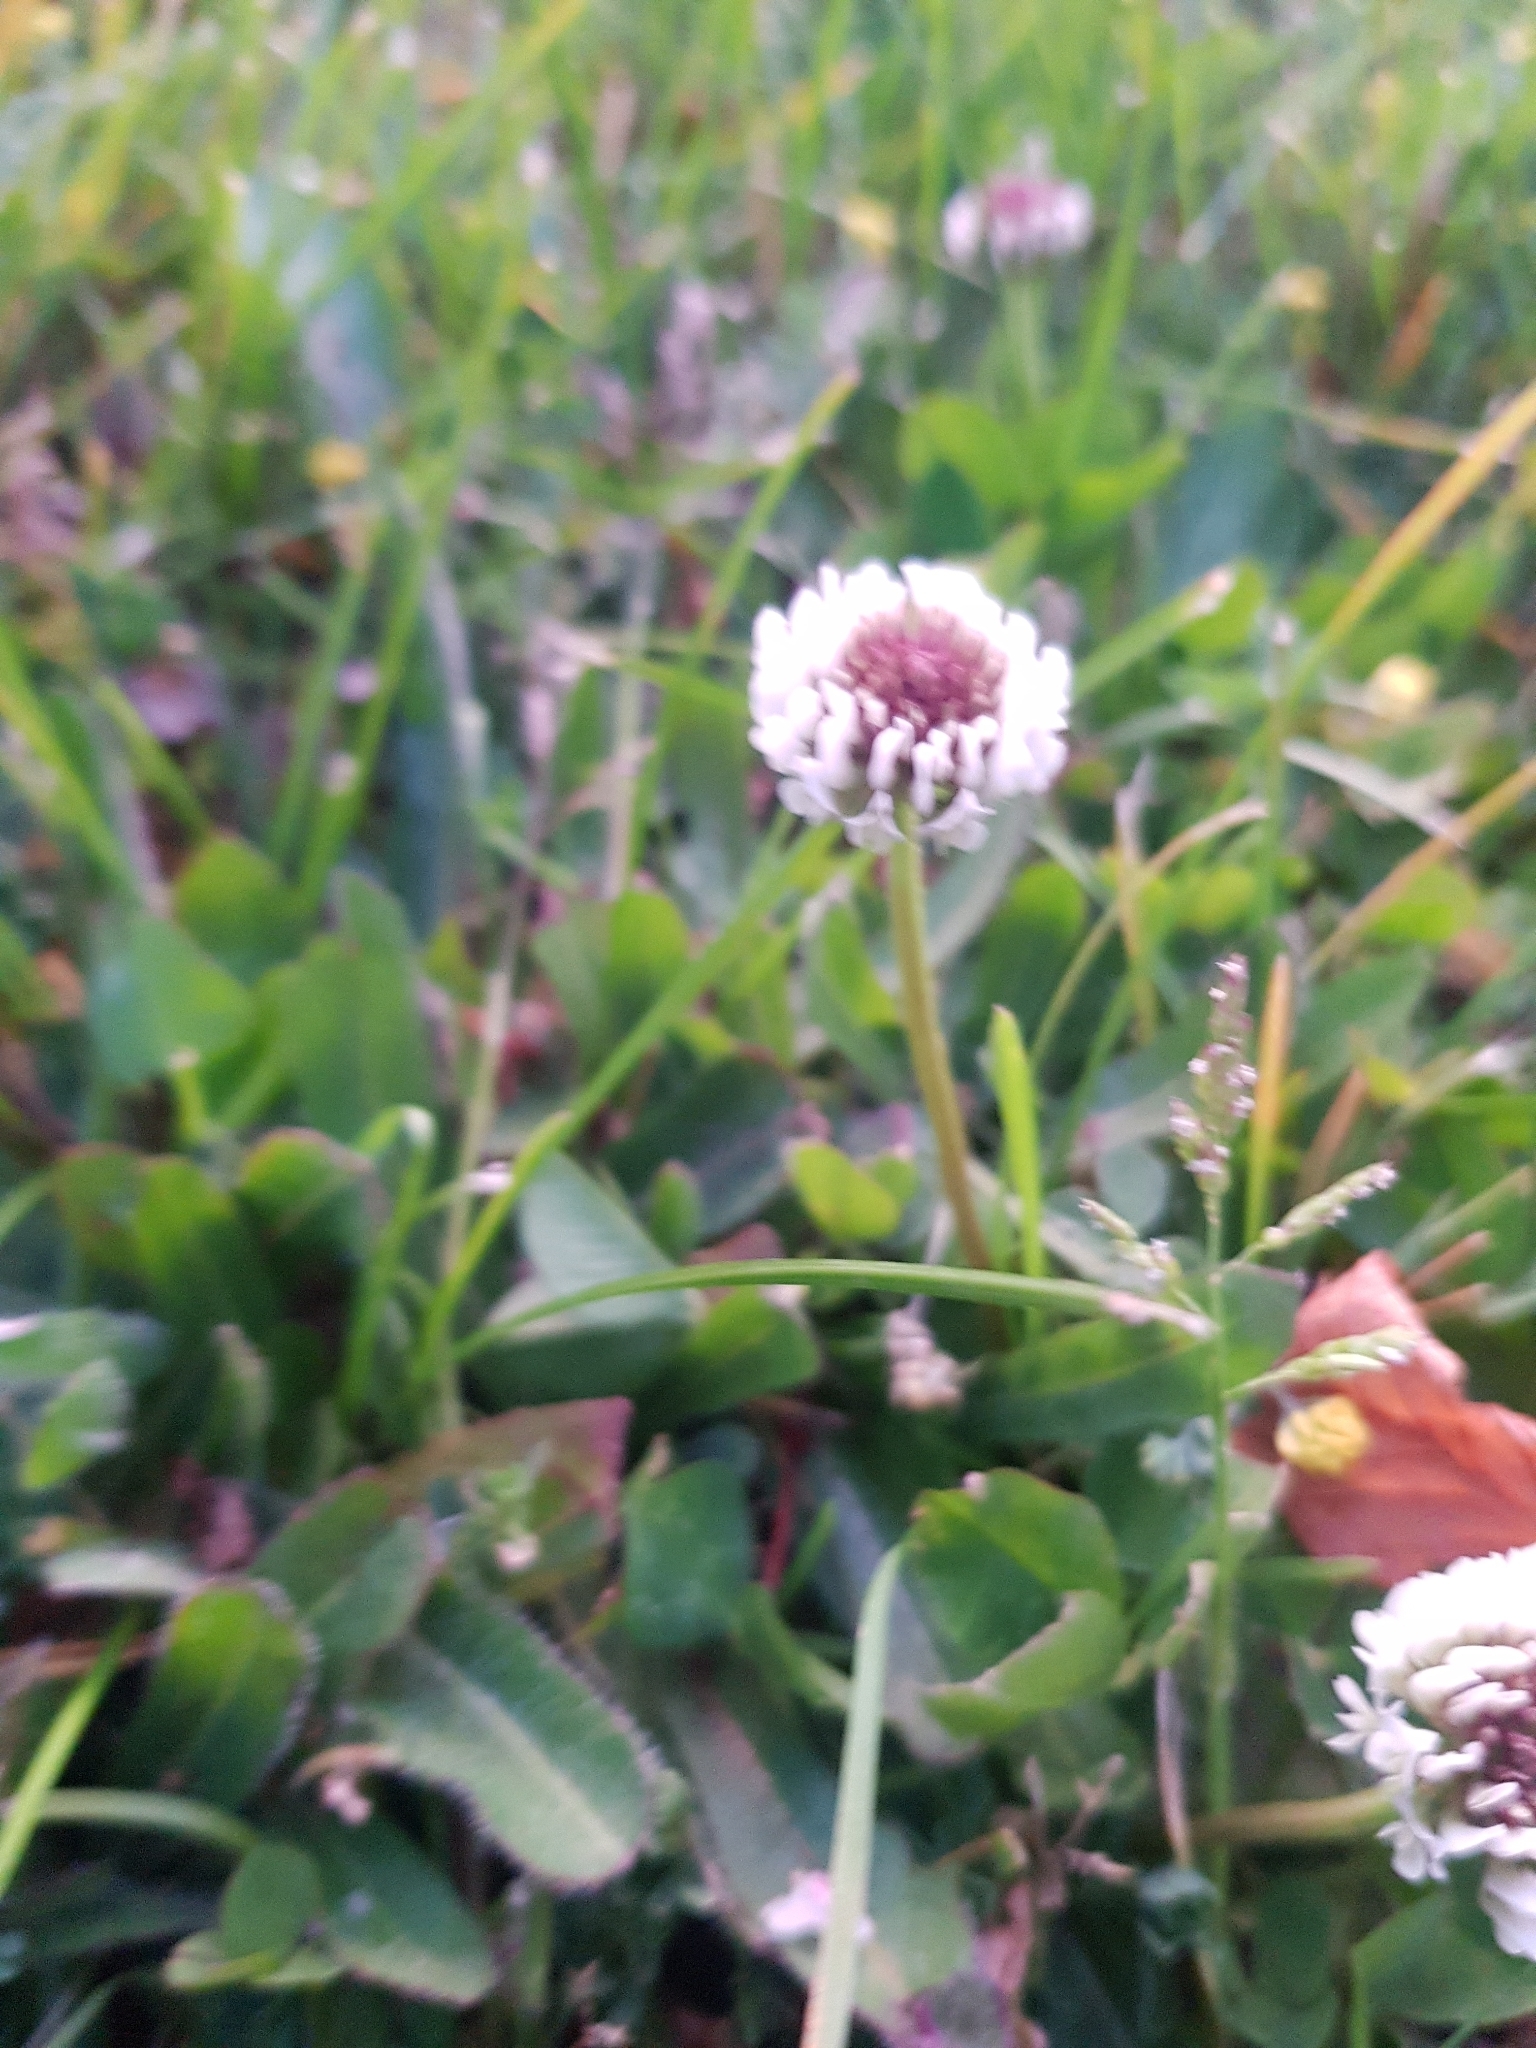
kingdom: Plantae
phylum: Tracheophyta
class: Magnoliopsida
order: Fabales
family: Fabaceae
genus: Trifolium
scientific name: Trifolium repens
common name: White clover
